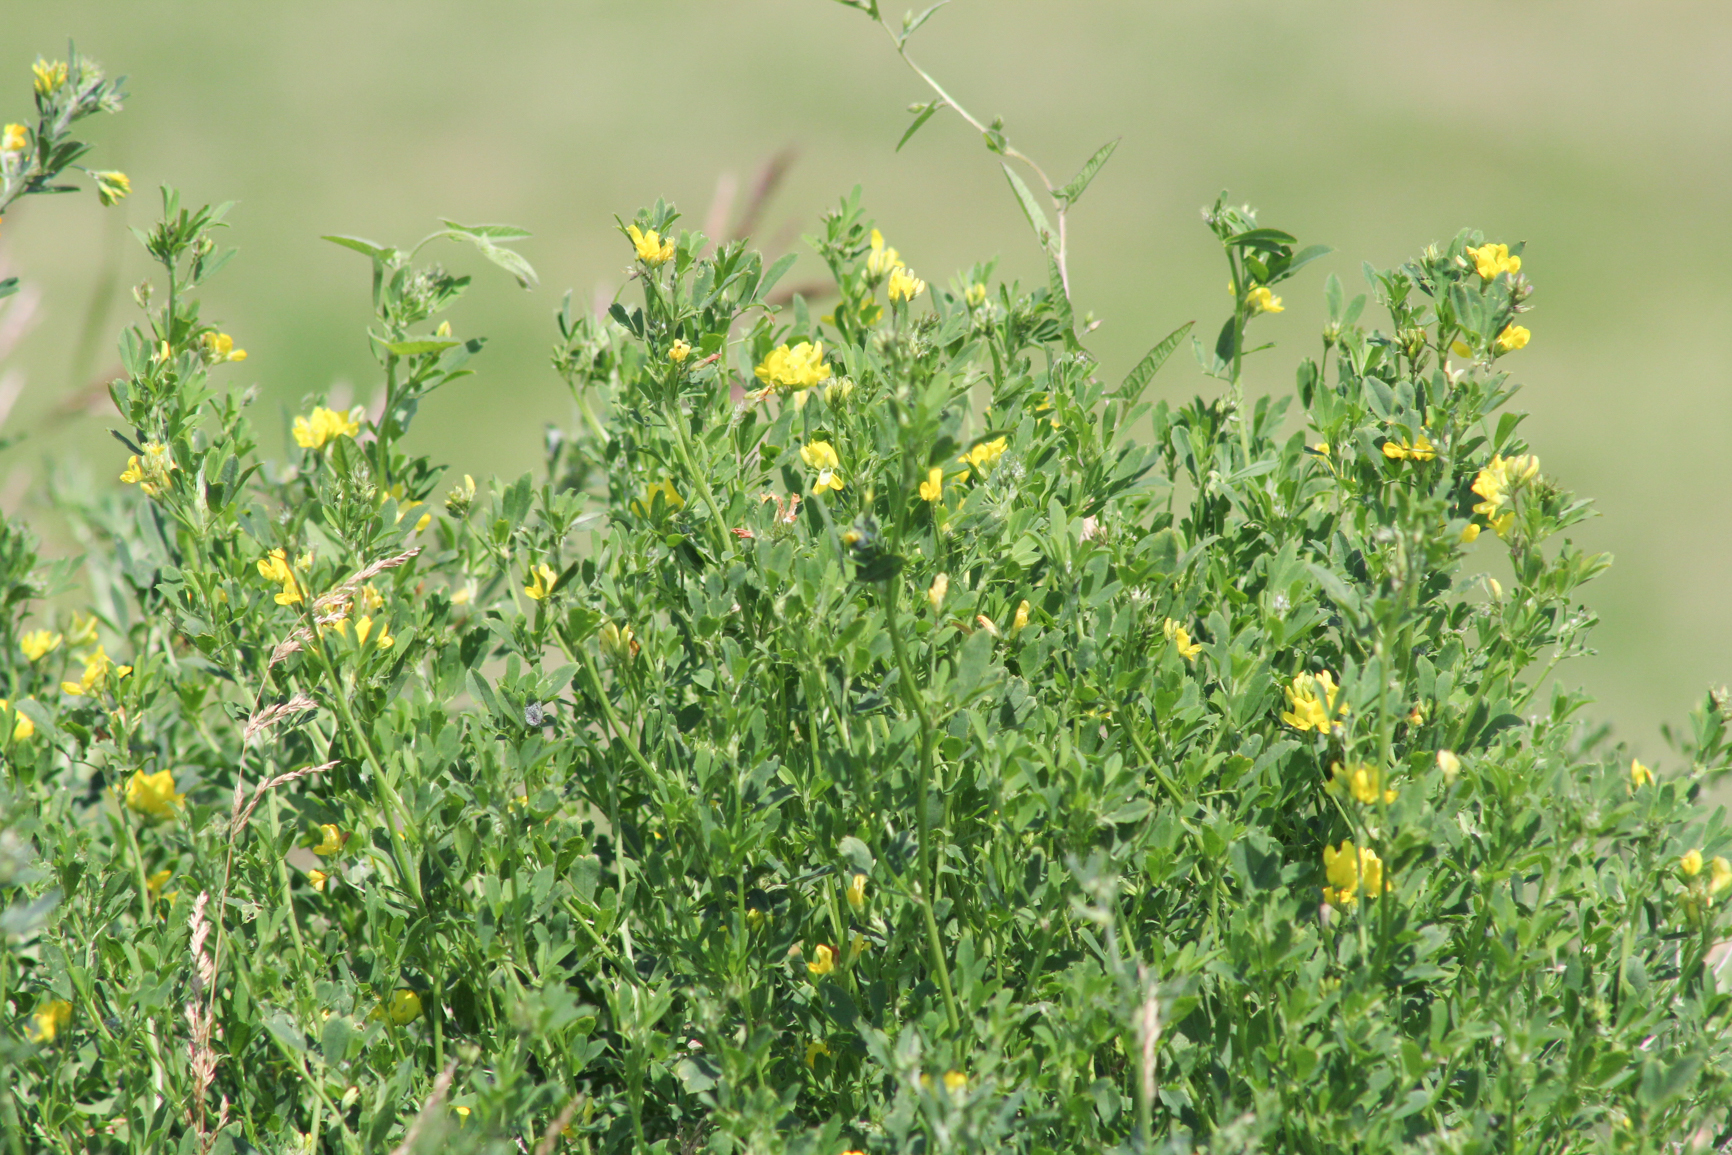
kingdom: Plantae
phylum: Tracheophyta
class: Magnoliopsida
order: Fabales
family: Fabaceae
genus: Medicago
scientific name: Medicago falcata
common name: Sickle medick
